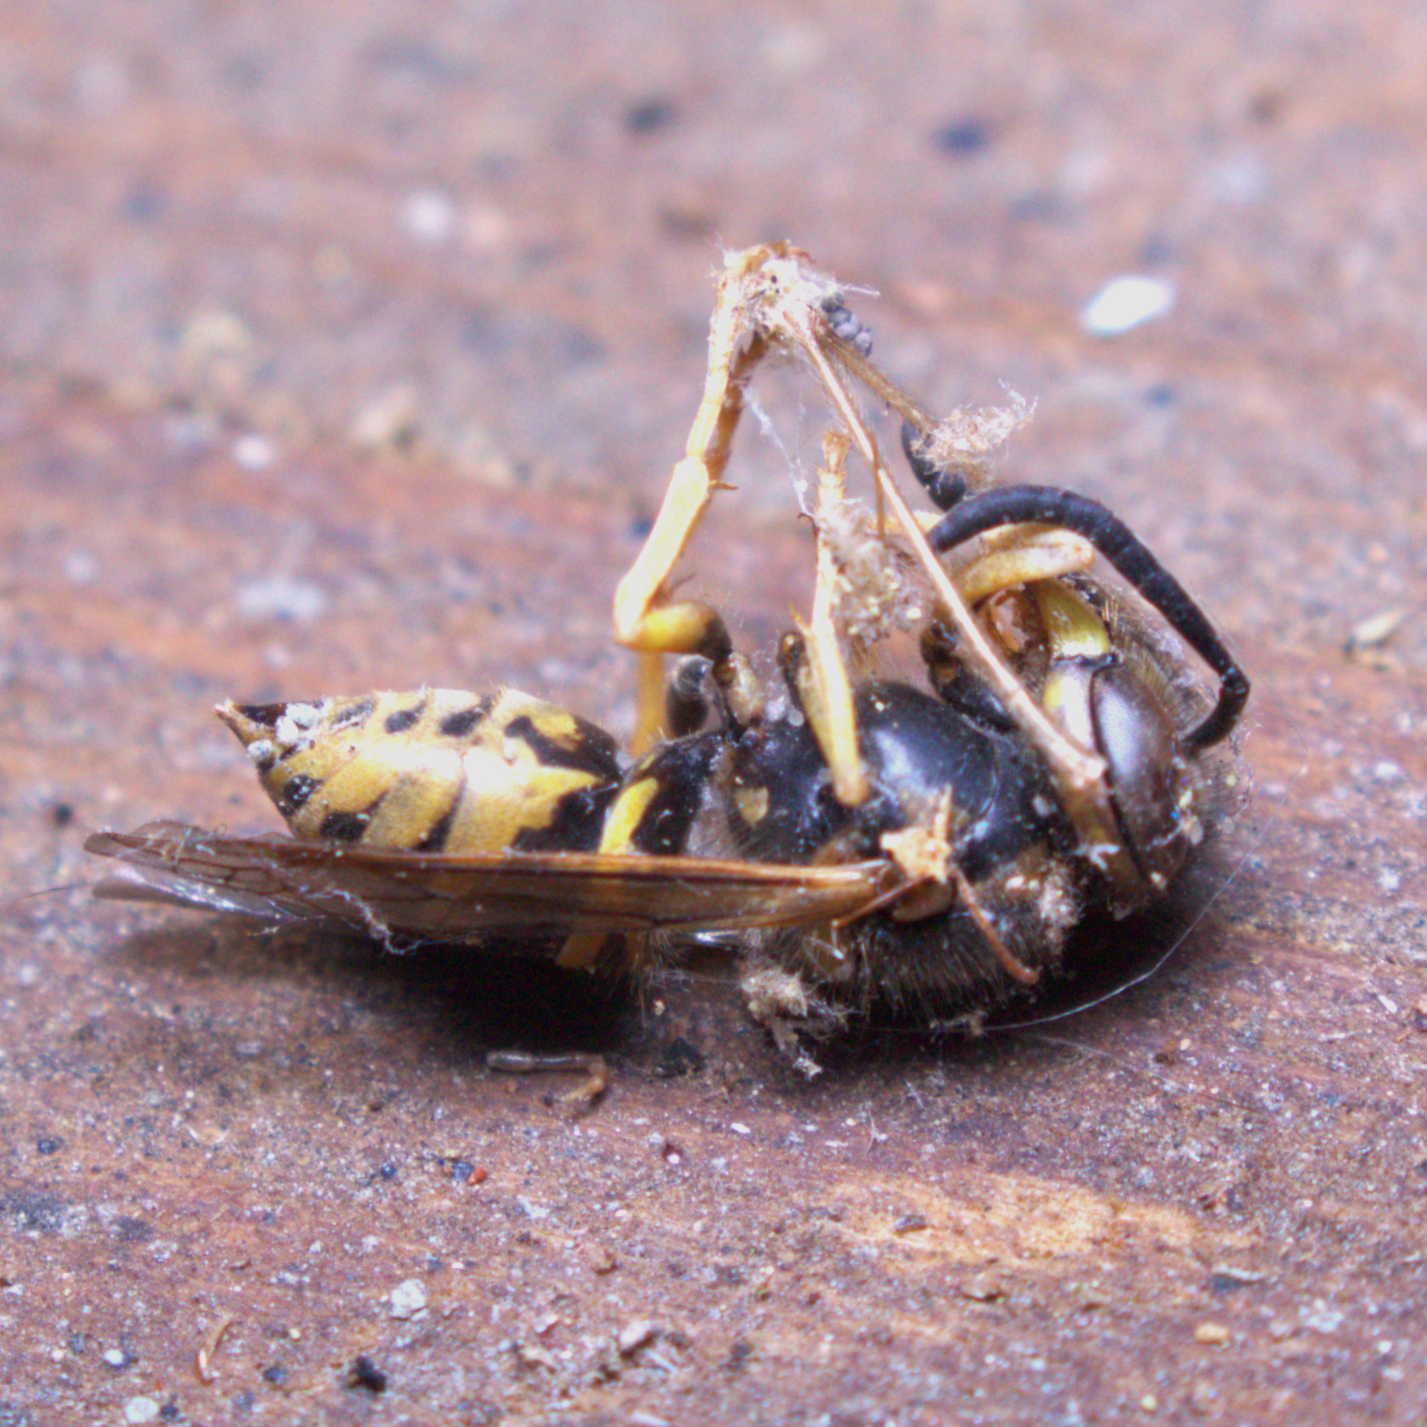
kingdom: Animalia
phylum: Arthropoda
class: Insecta
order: Hymenoptera
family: Vespidae
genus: Vespula
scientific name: Vespula maculifrons
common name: Eastern yellowjacket
